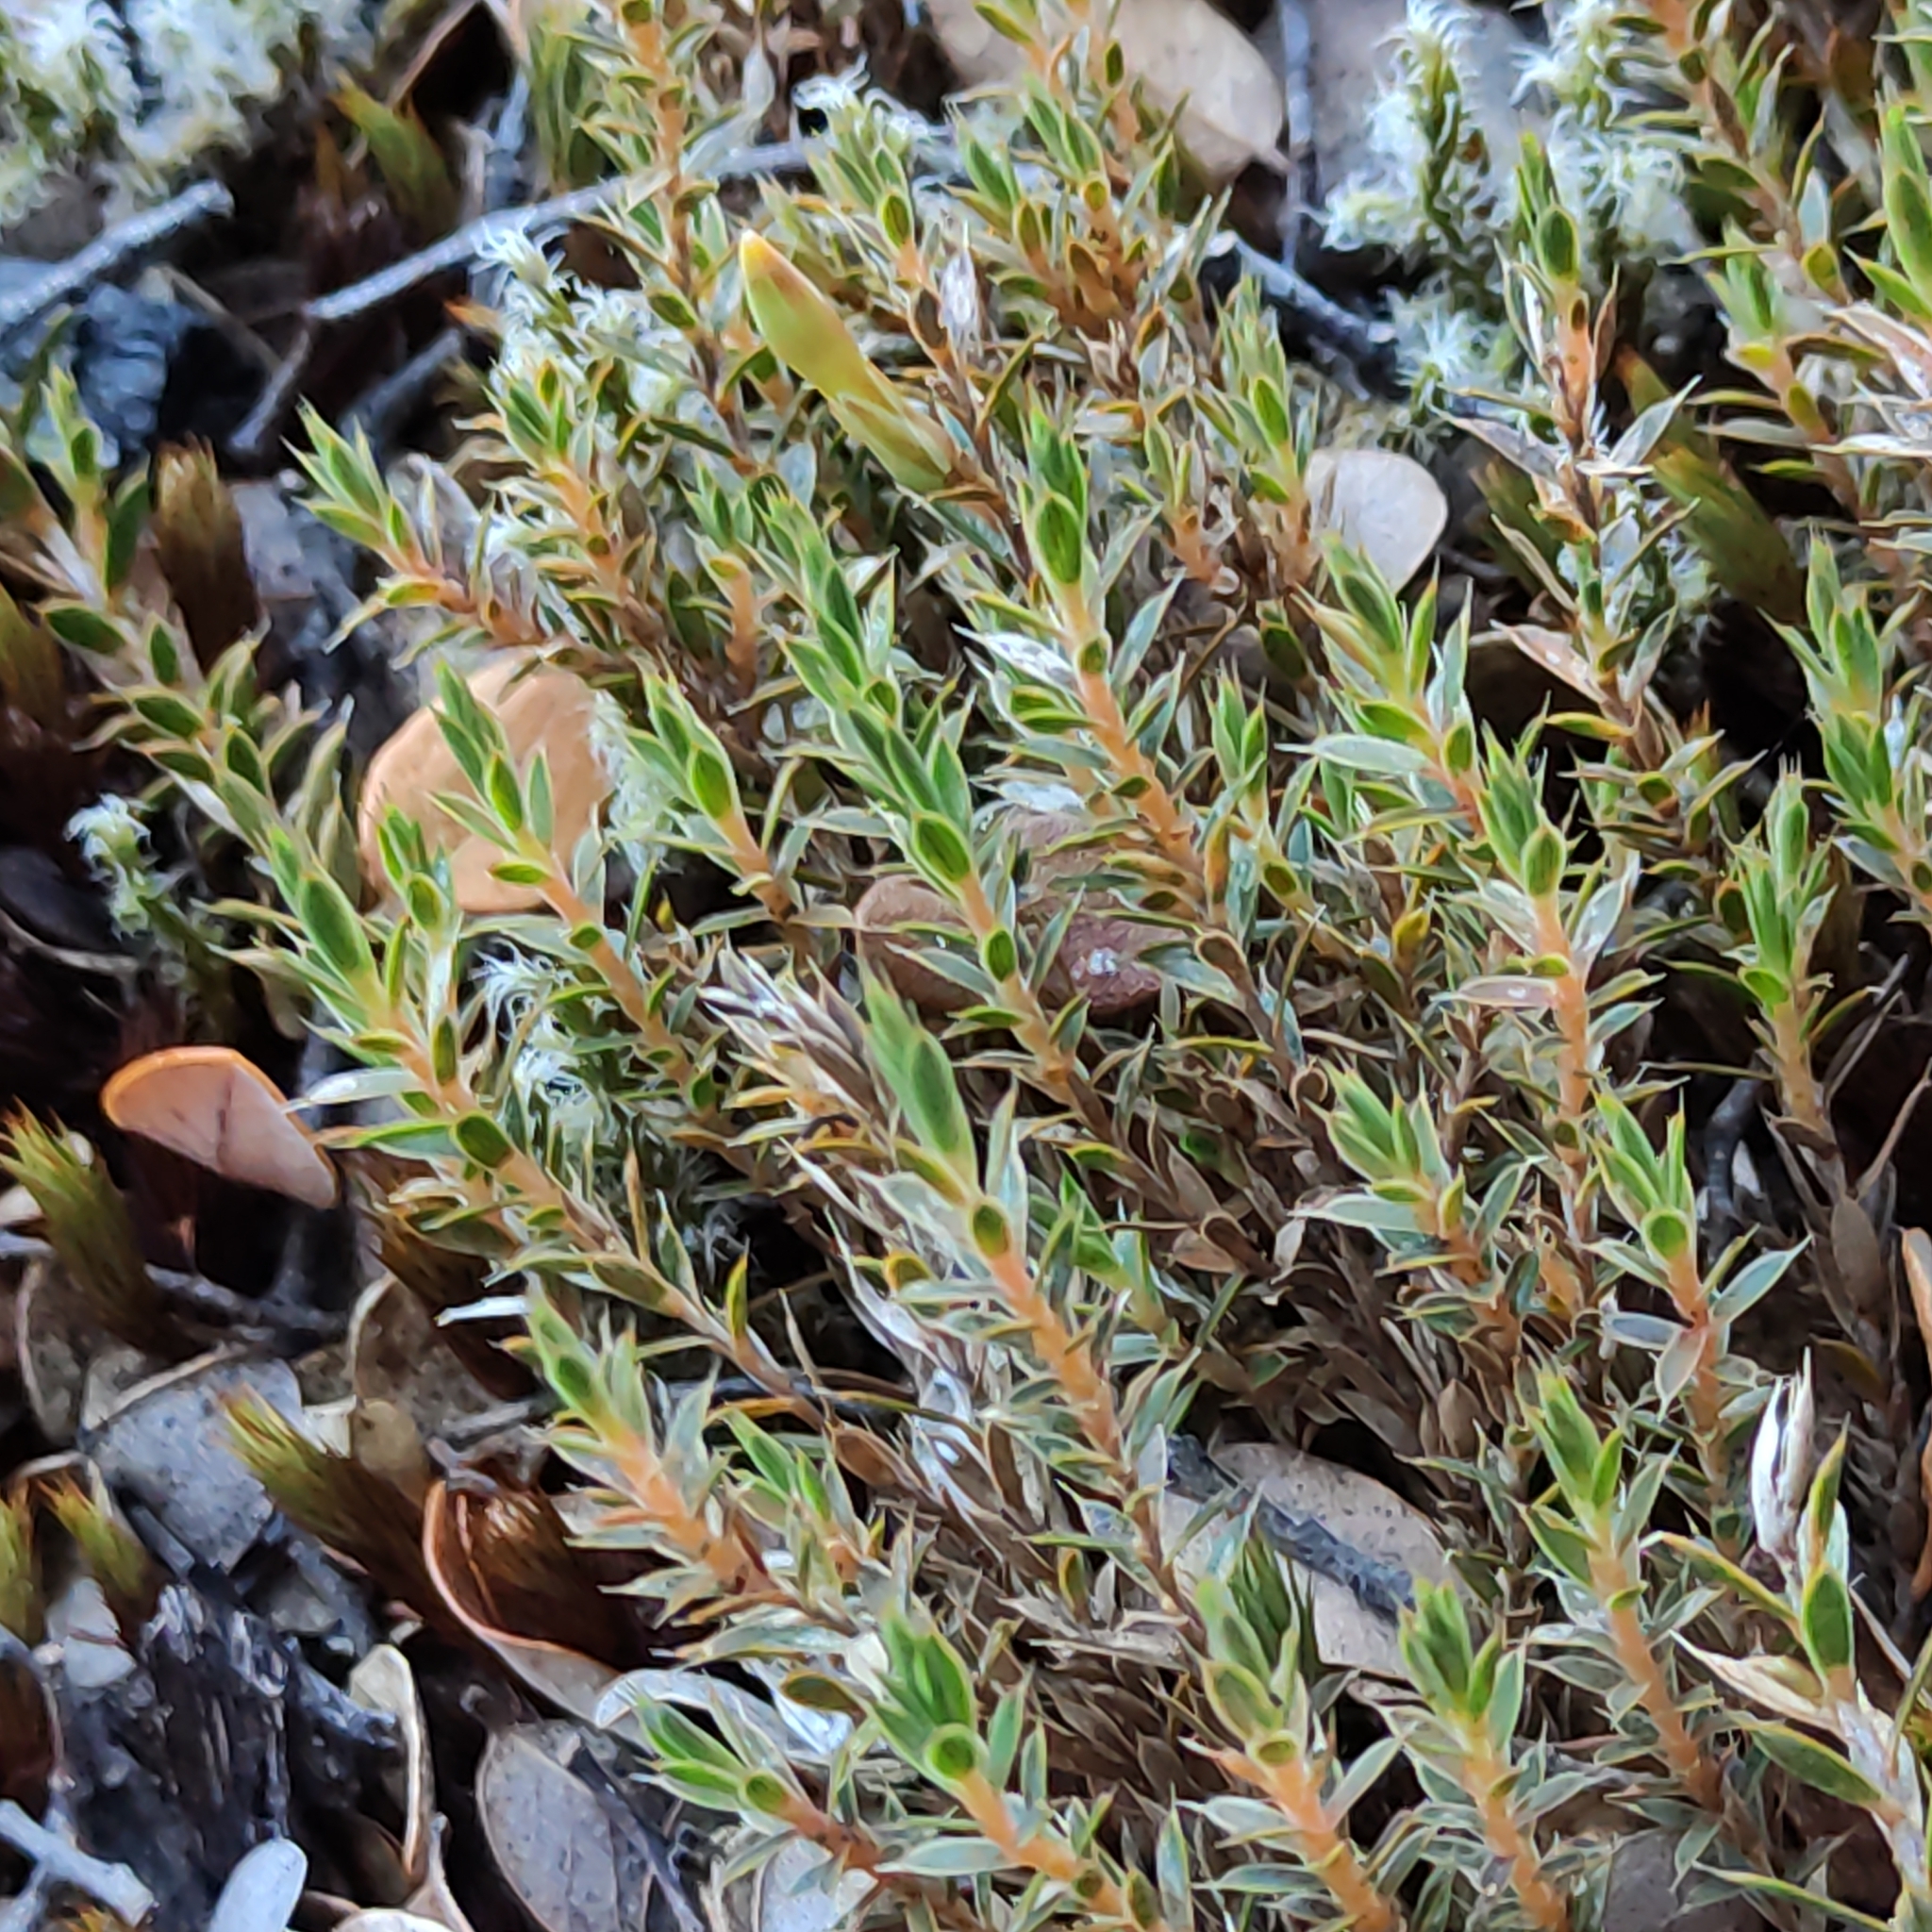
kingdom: Plantae
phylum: Tracheophyta
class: Magnoliopsida
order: Ericales
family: Ericaceae
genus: Styphelia
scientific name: Styphelia nesophila
